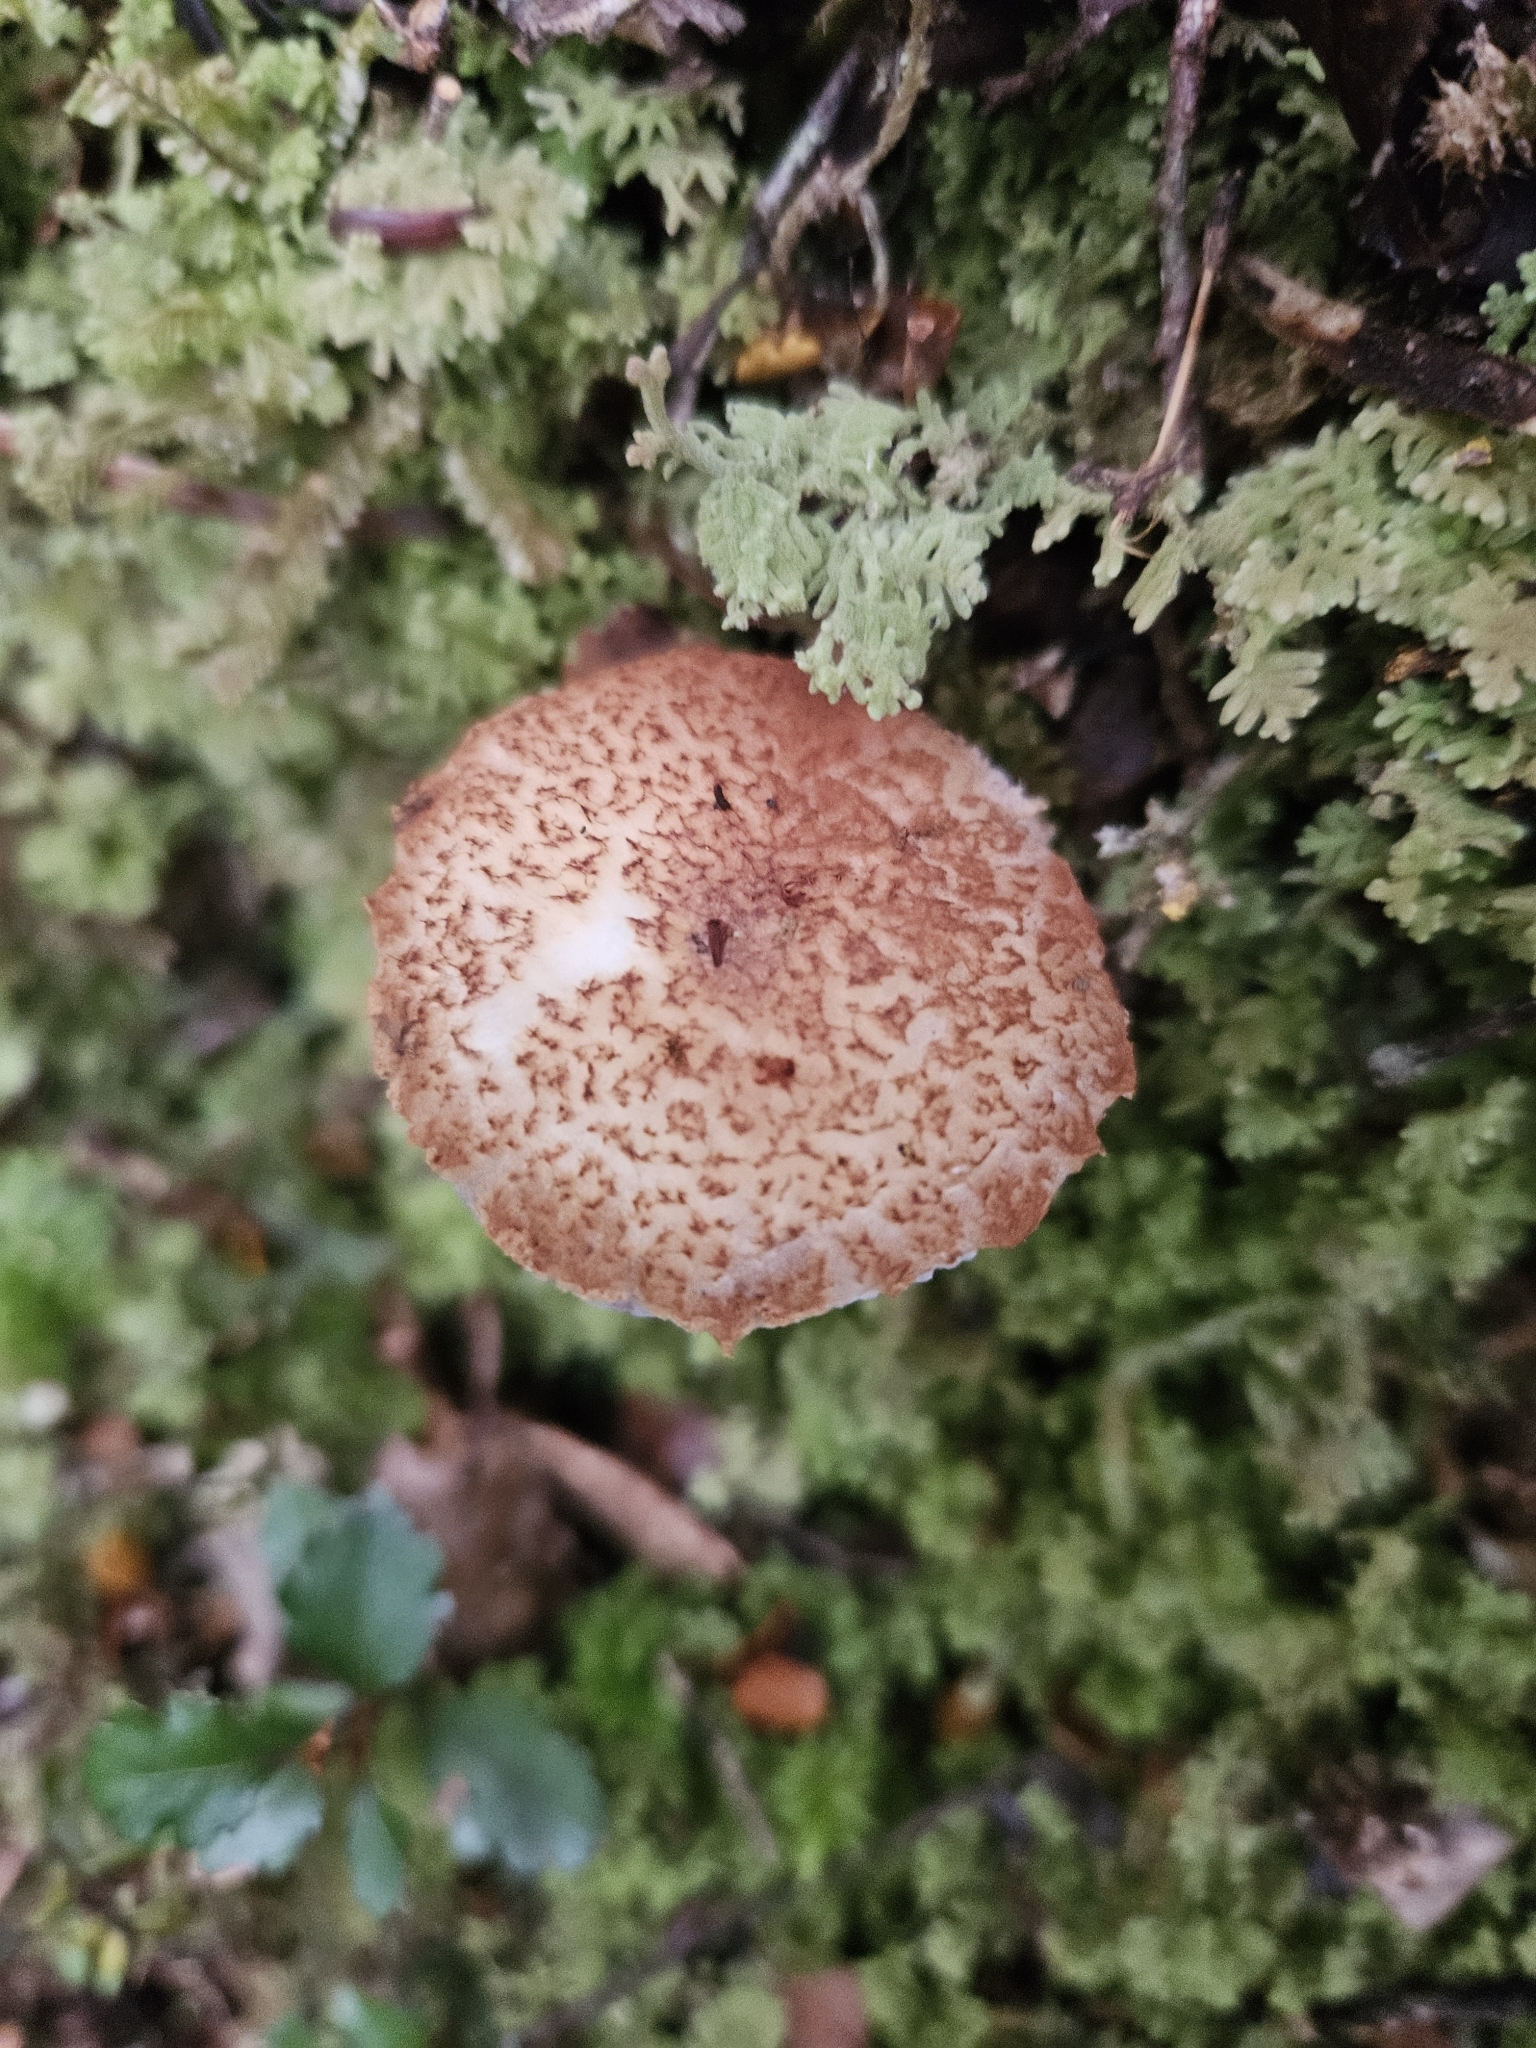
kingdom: Fungi
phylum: Basidiomycota
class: Agaricomycetes
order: Boletales
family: Boletaceae
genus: Austroboletus
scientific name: Austroboletus lacunosus
